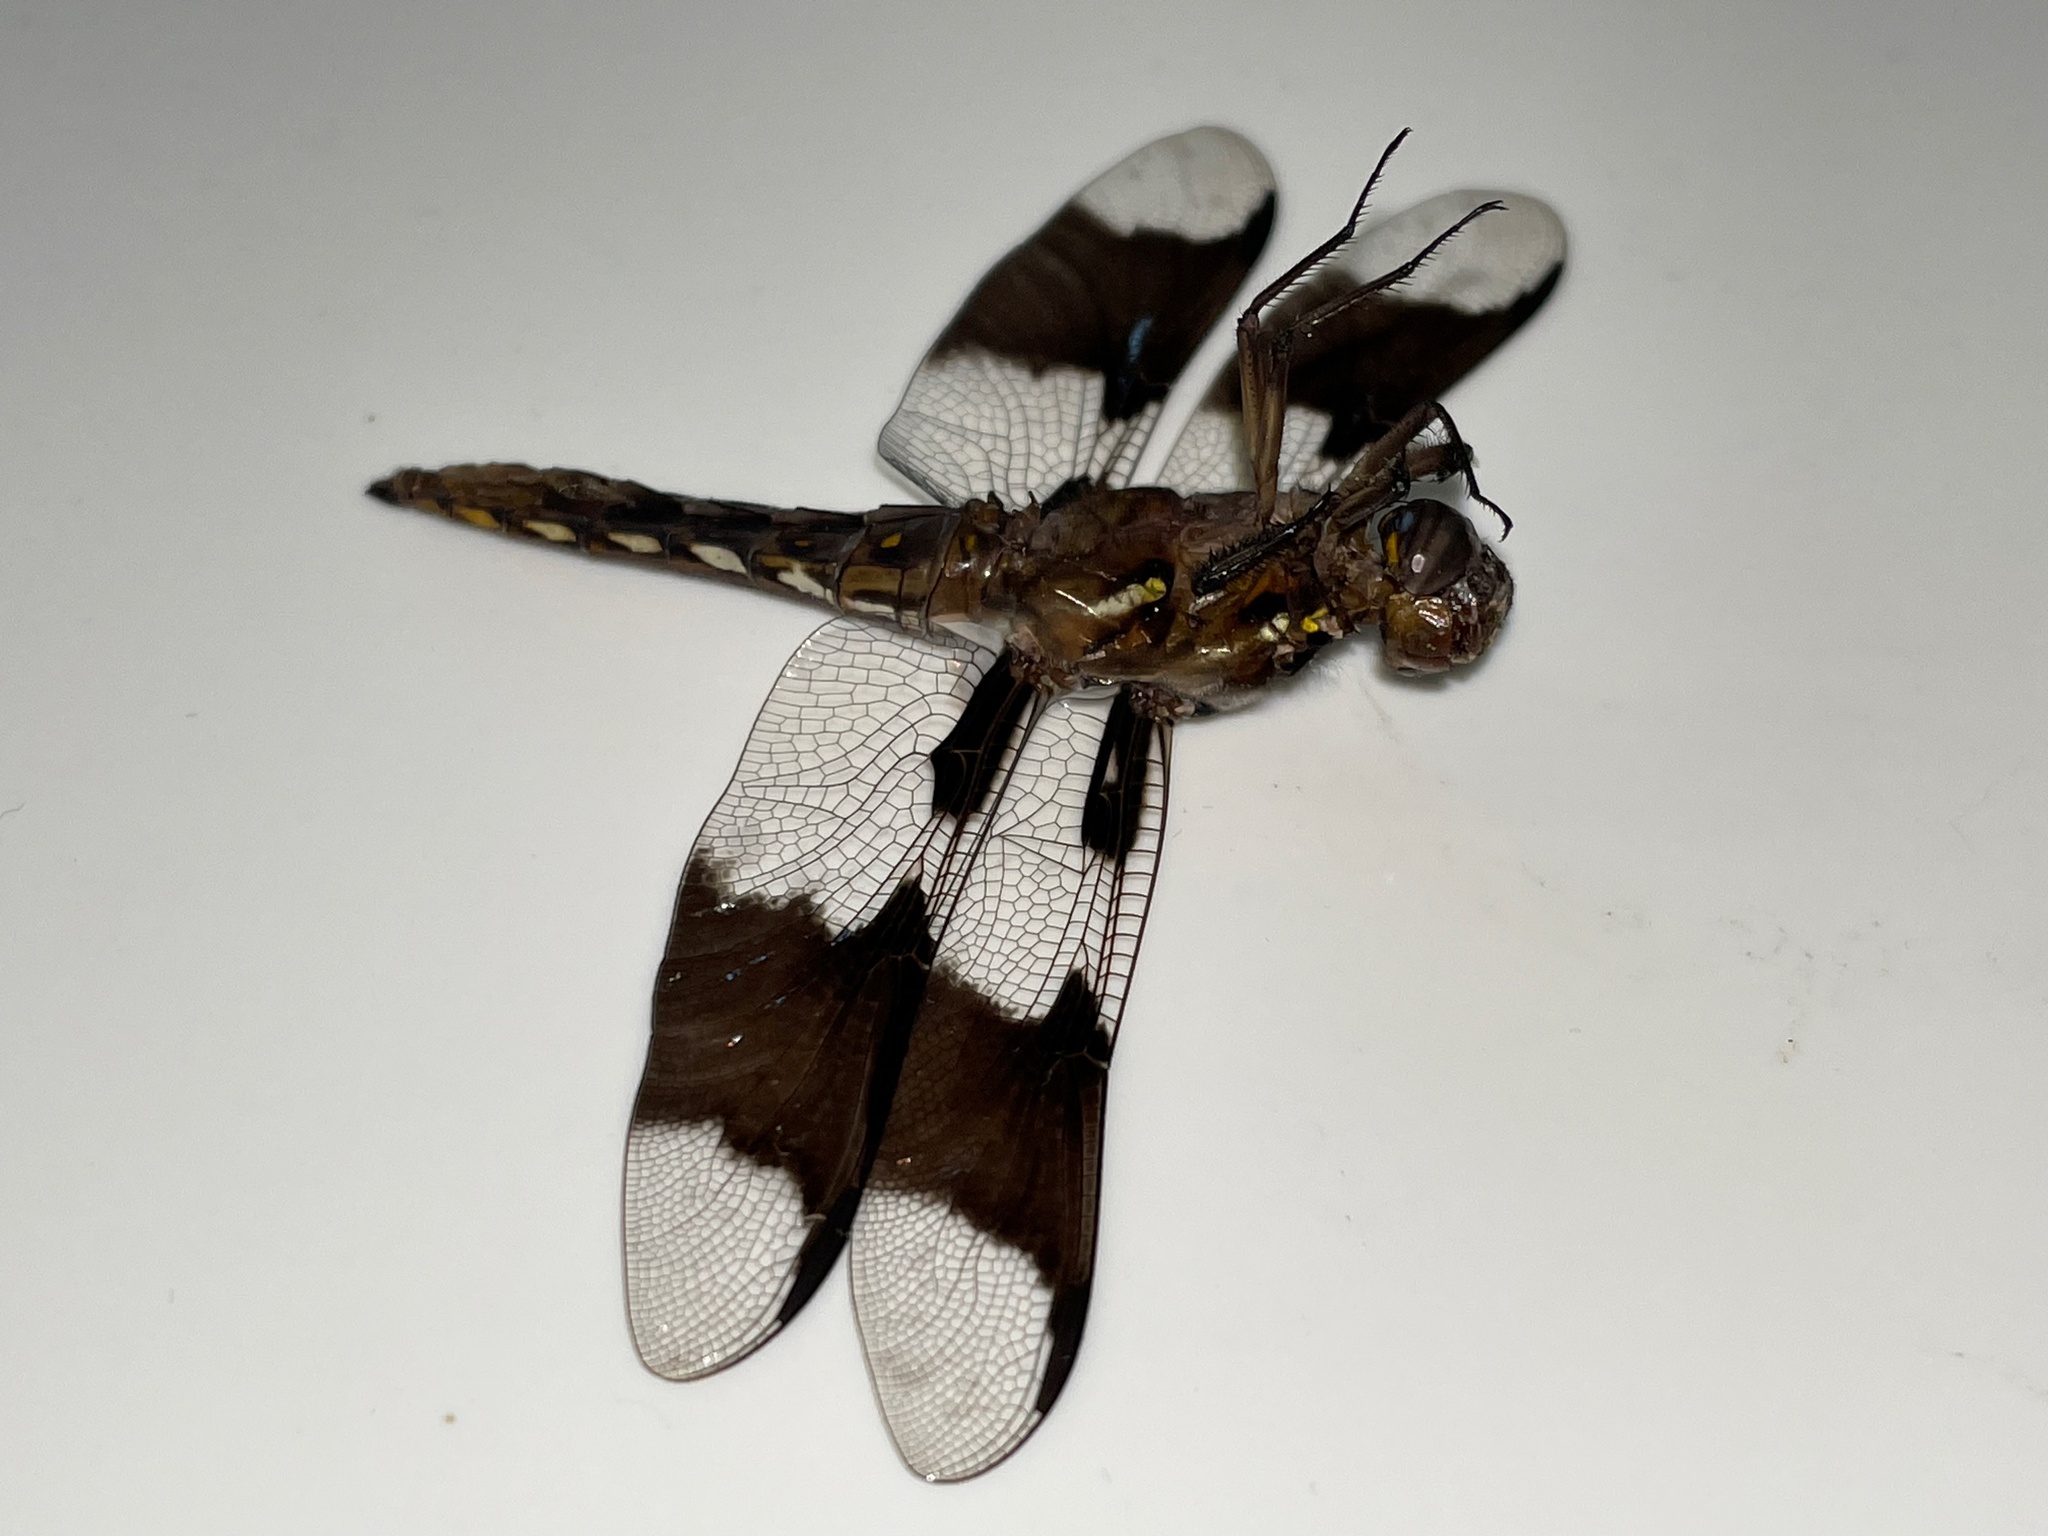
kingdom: Animalia
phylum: Arthropoda
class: Insecta
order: Odonata
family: Libellulidae
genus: Plathemis
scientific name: Plathemis lydia
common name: Common whitetail
